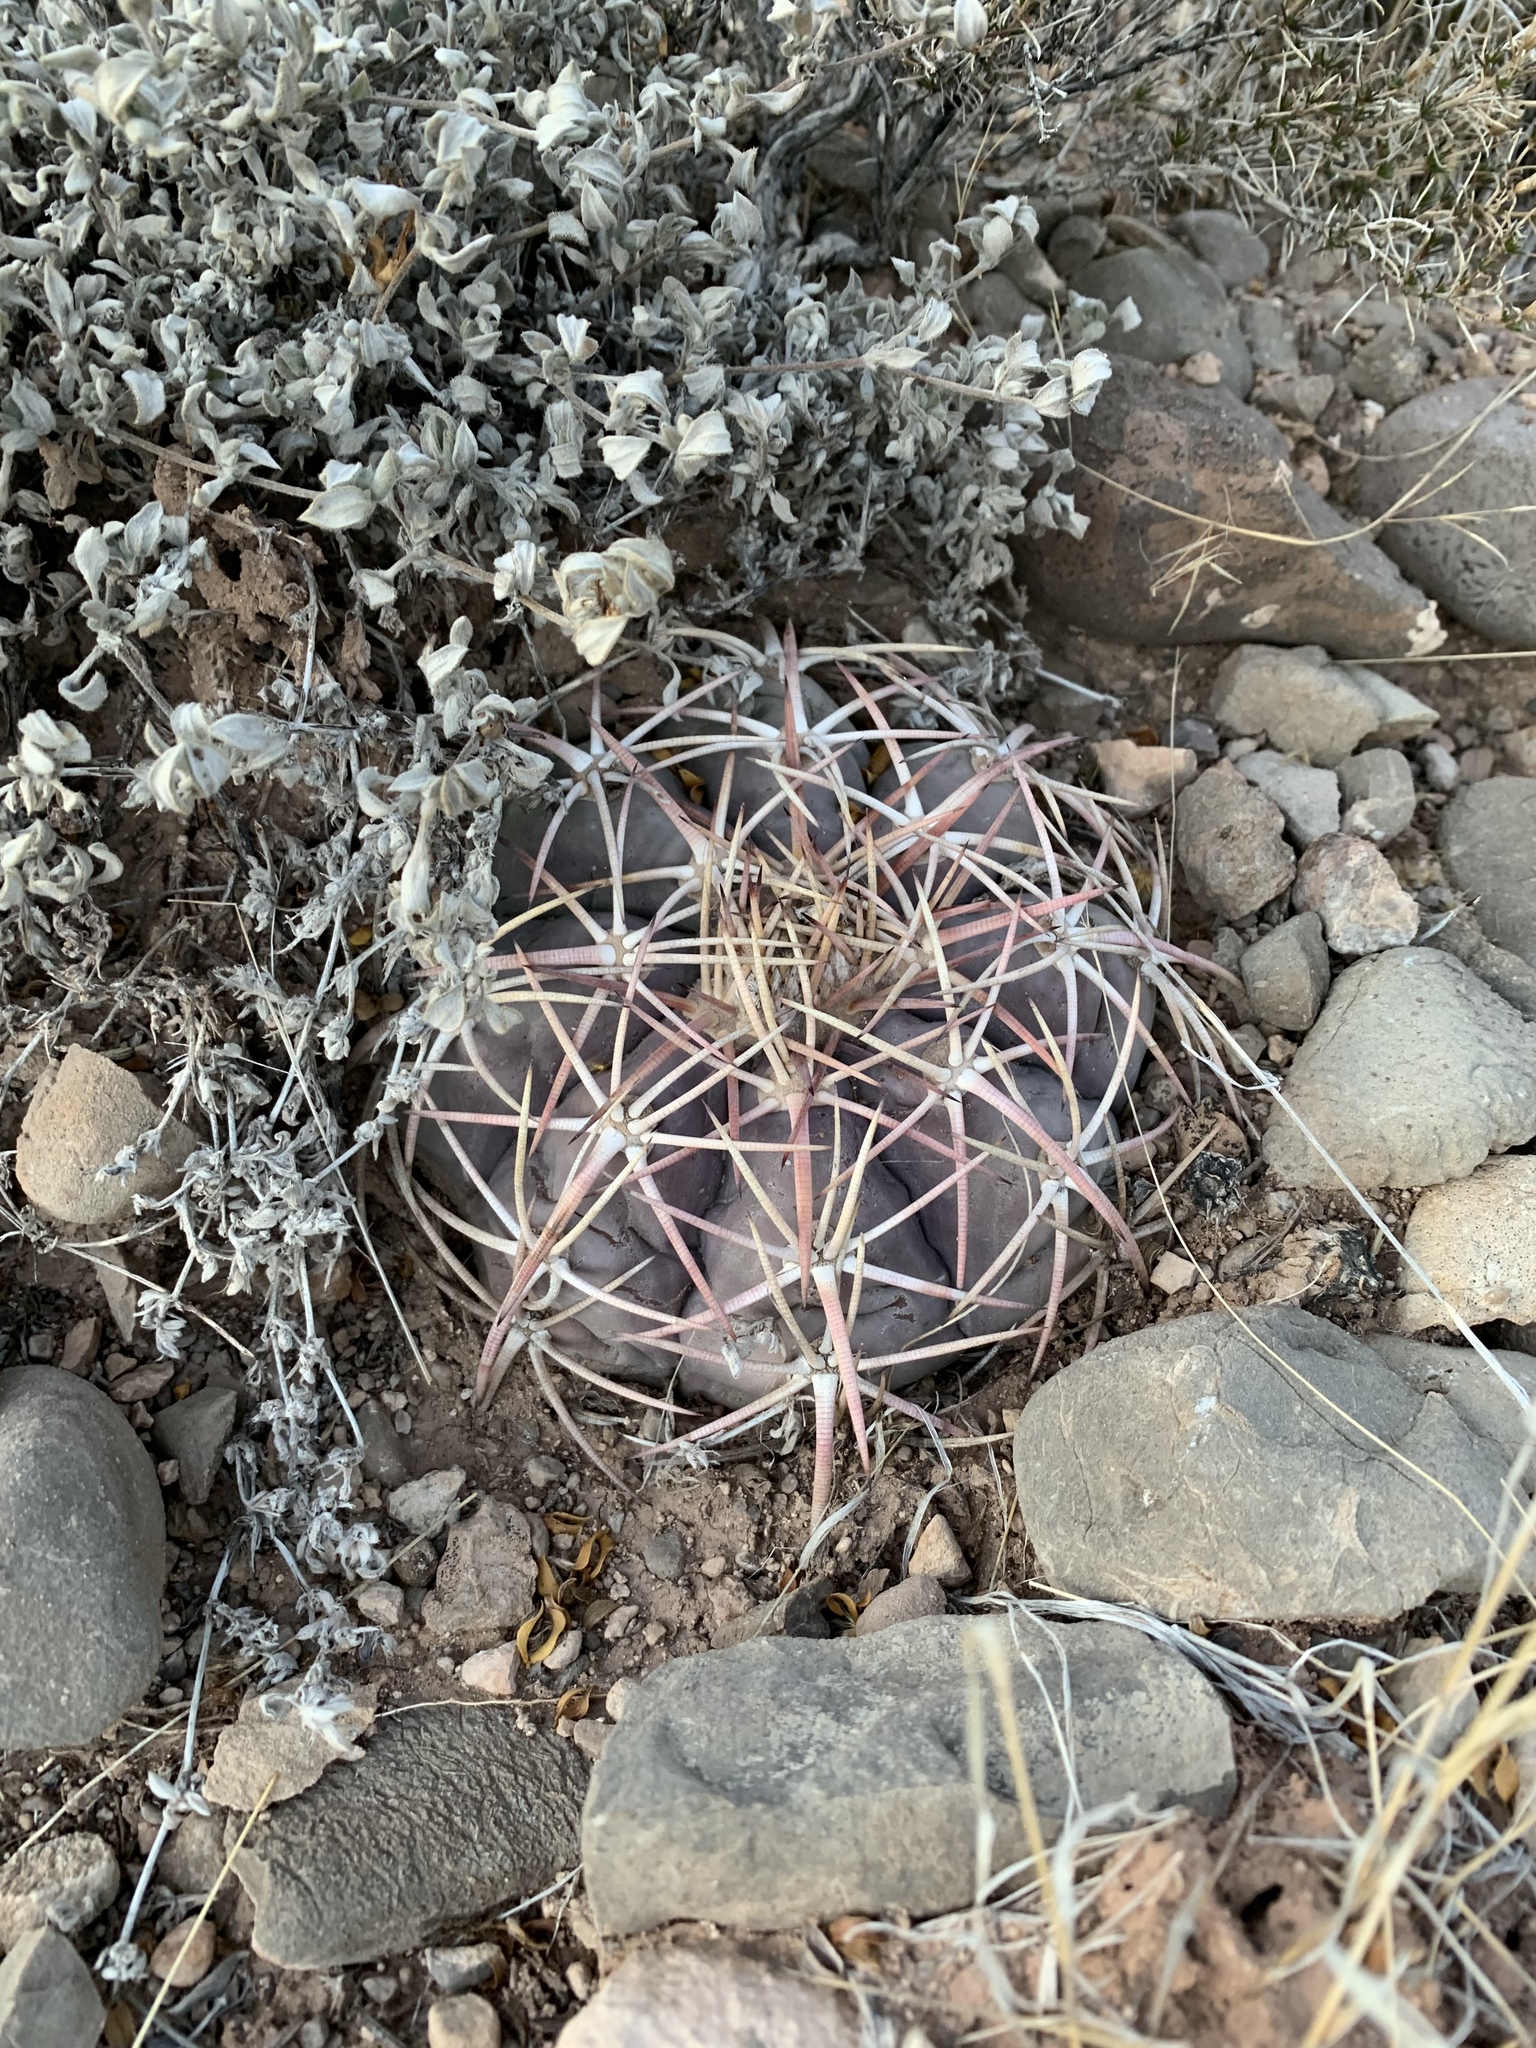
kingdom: Plantae
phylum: Tracheophyta
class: Magnoliopsida
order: Caryophyllales
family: Cactaceae
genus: Echinocactus
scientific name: Echinocactus horizonthalonius
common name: Devilshead
